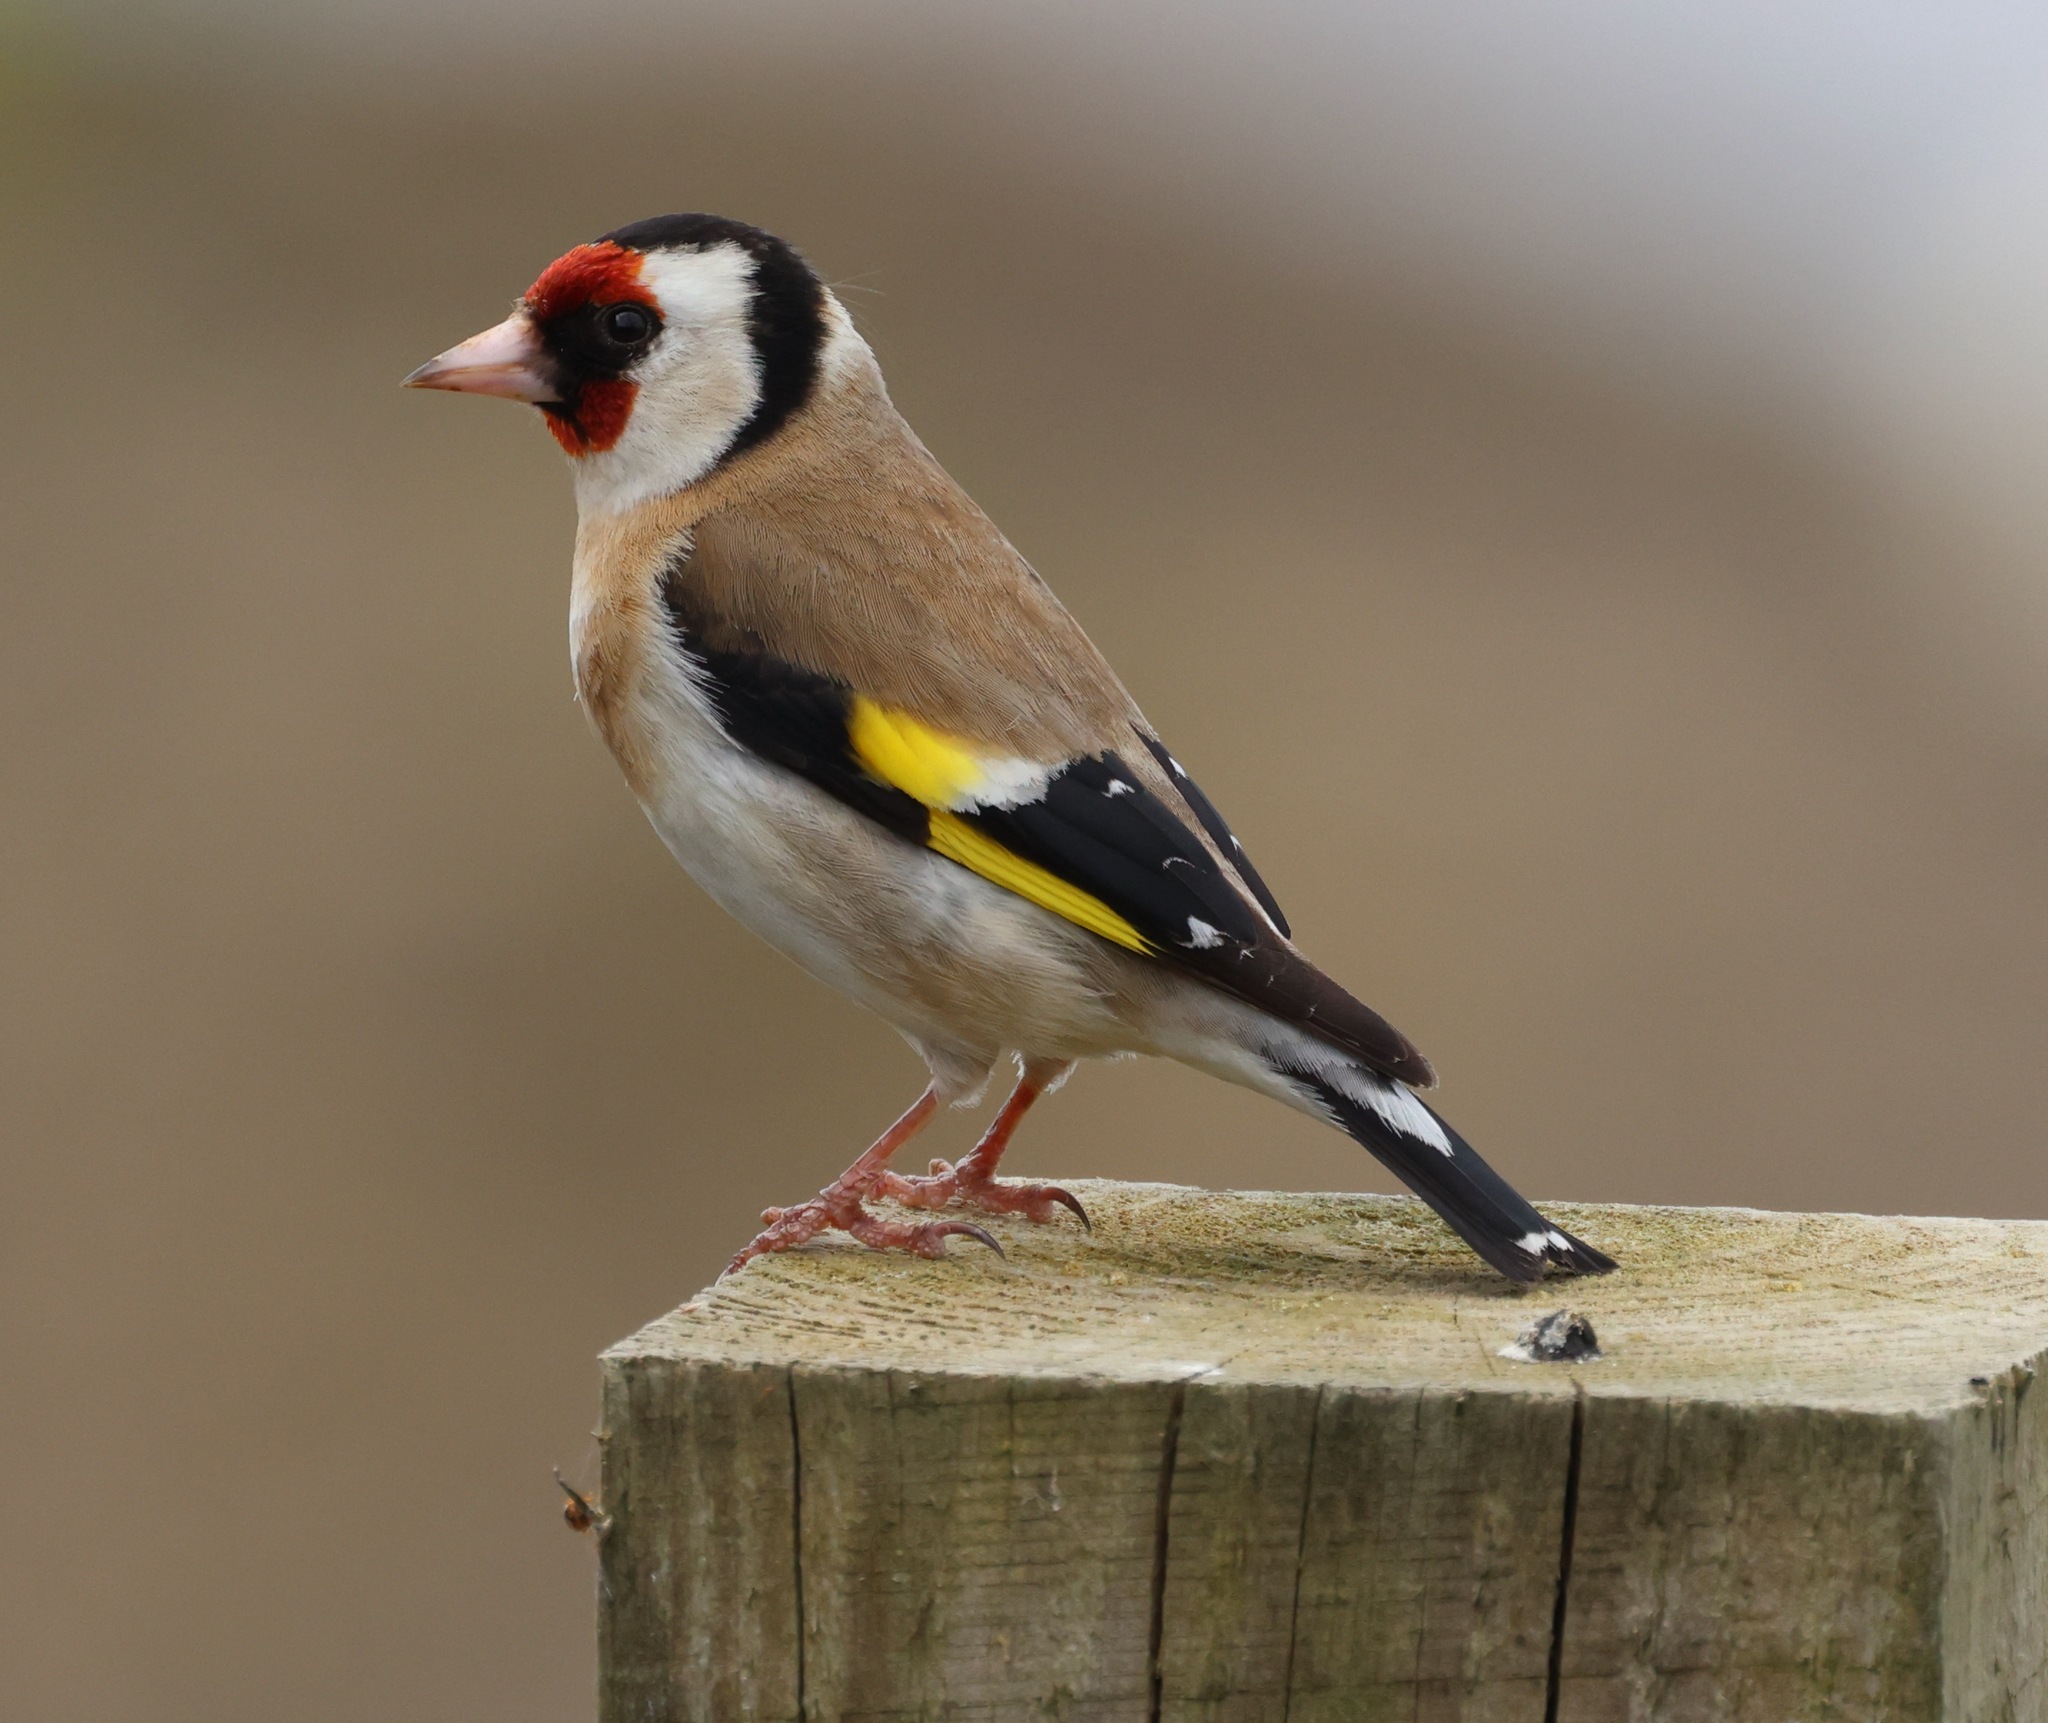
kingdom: Animalia
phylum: Chordata
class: Aves
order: Passeriformes
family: Fringillidae
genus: Carduelis
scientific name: Carduelis carduelis
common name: European goldfinch
